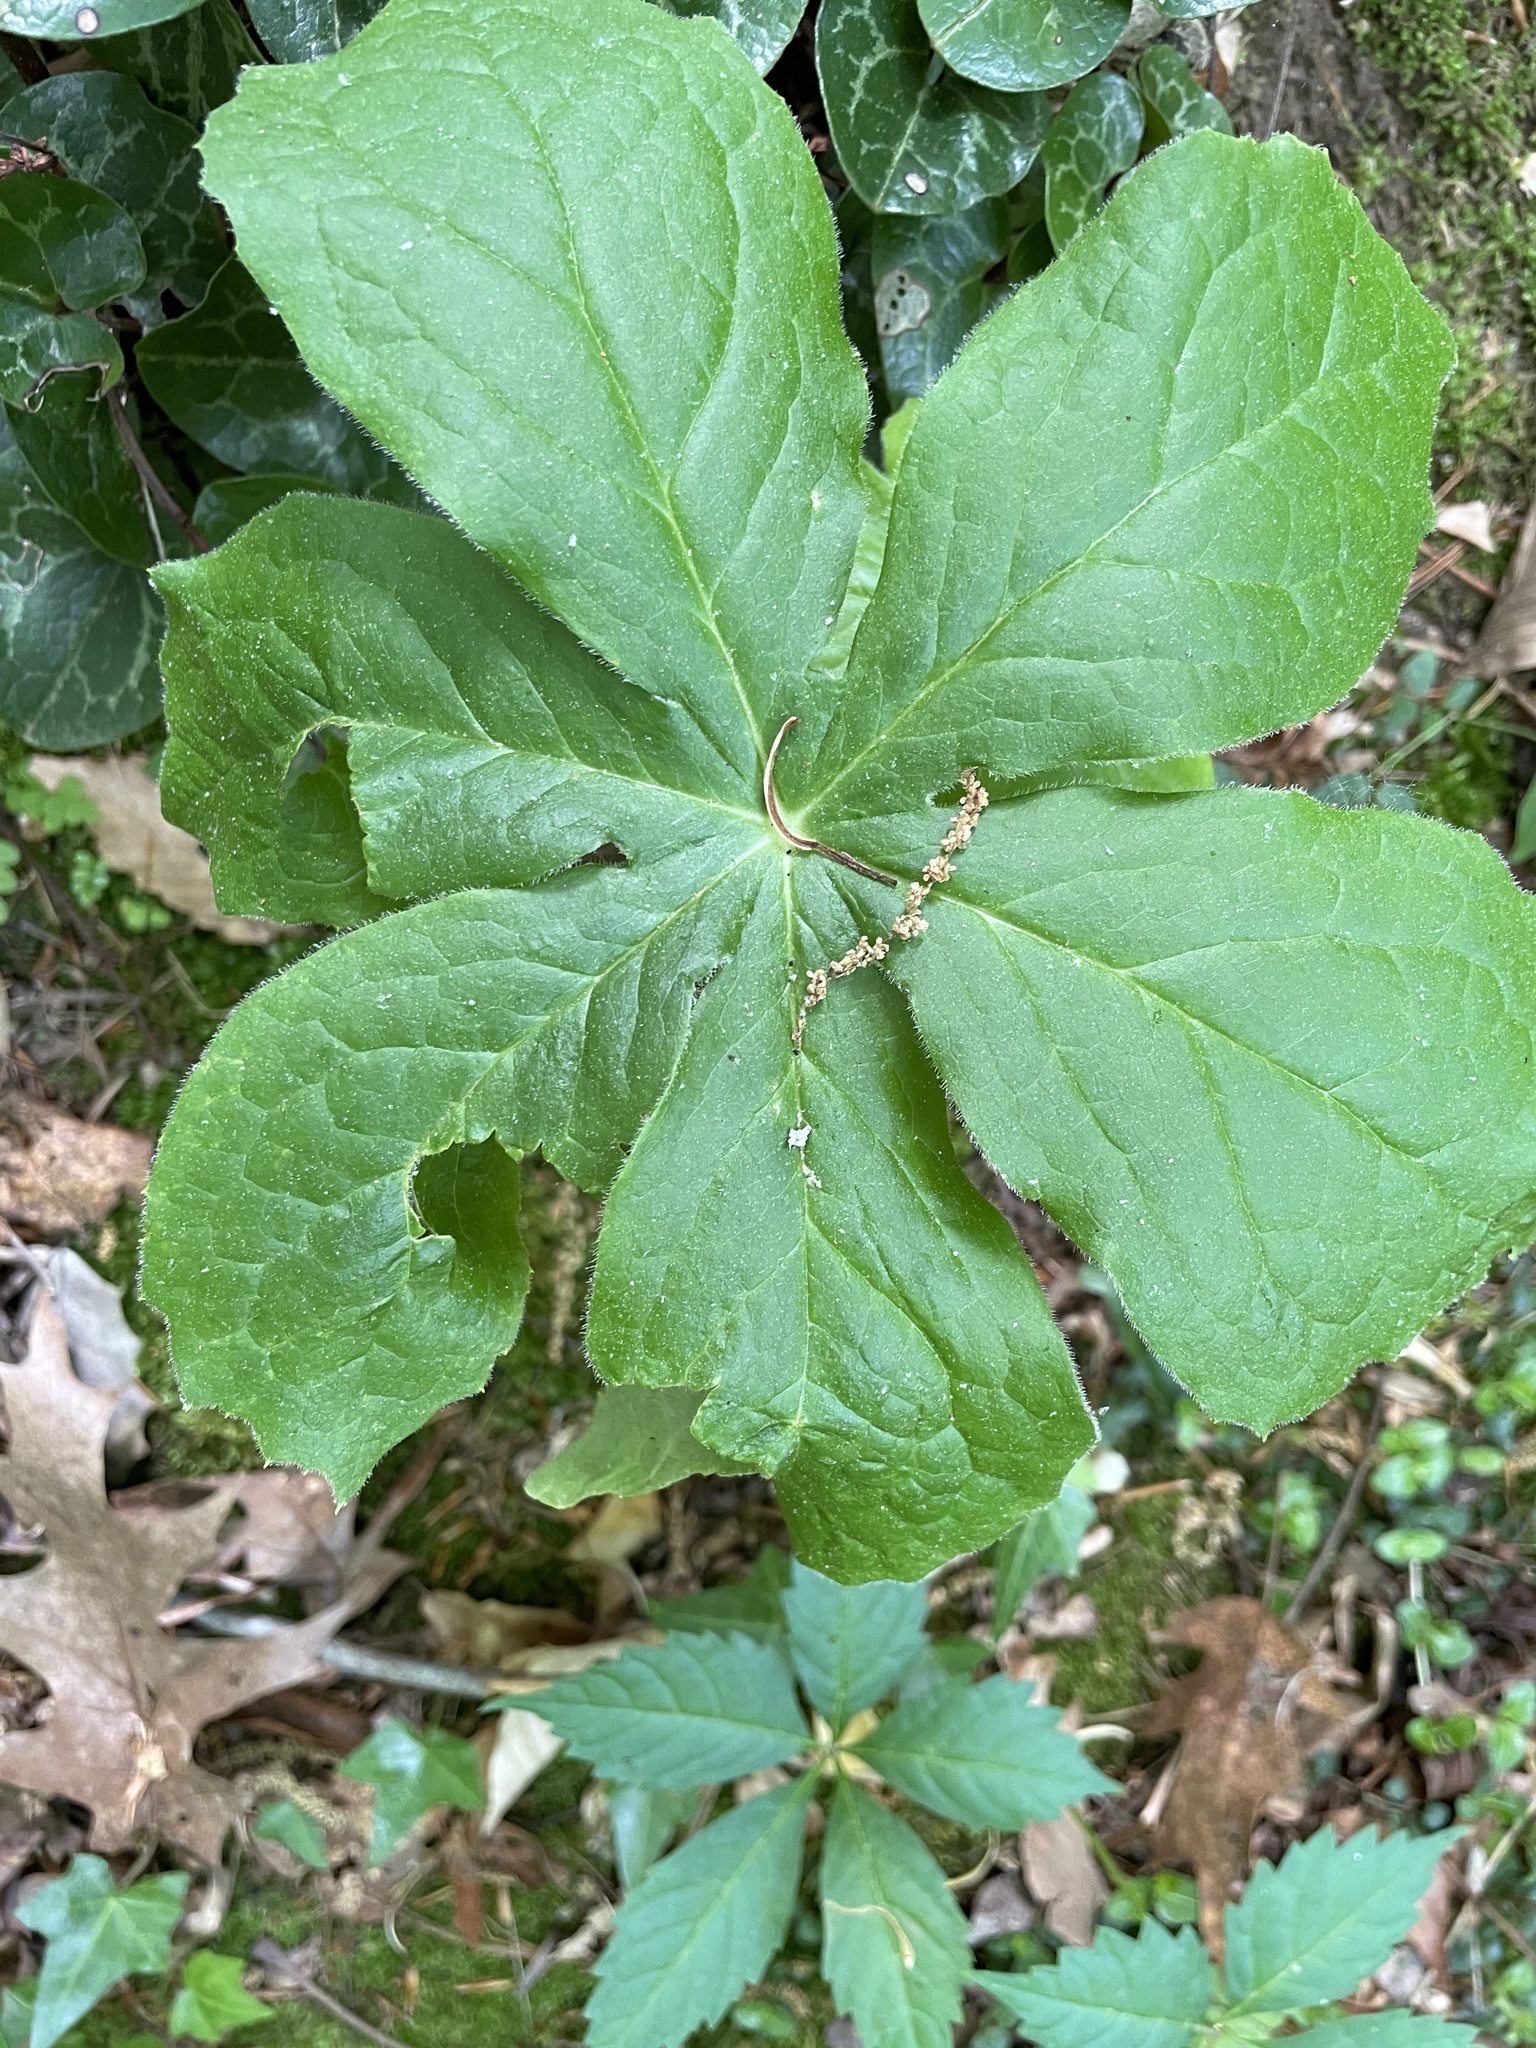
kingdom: Plantae
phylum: Tracheophyta
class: Magnoliopsida
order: Ranunculales
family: Berberidaceae
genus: Podophyllum
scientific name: Podophyllum peltatum
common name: Wild mandrake
